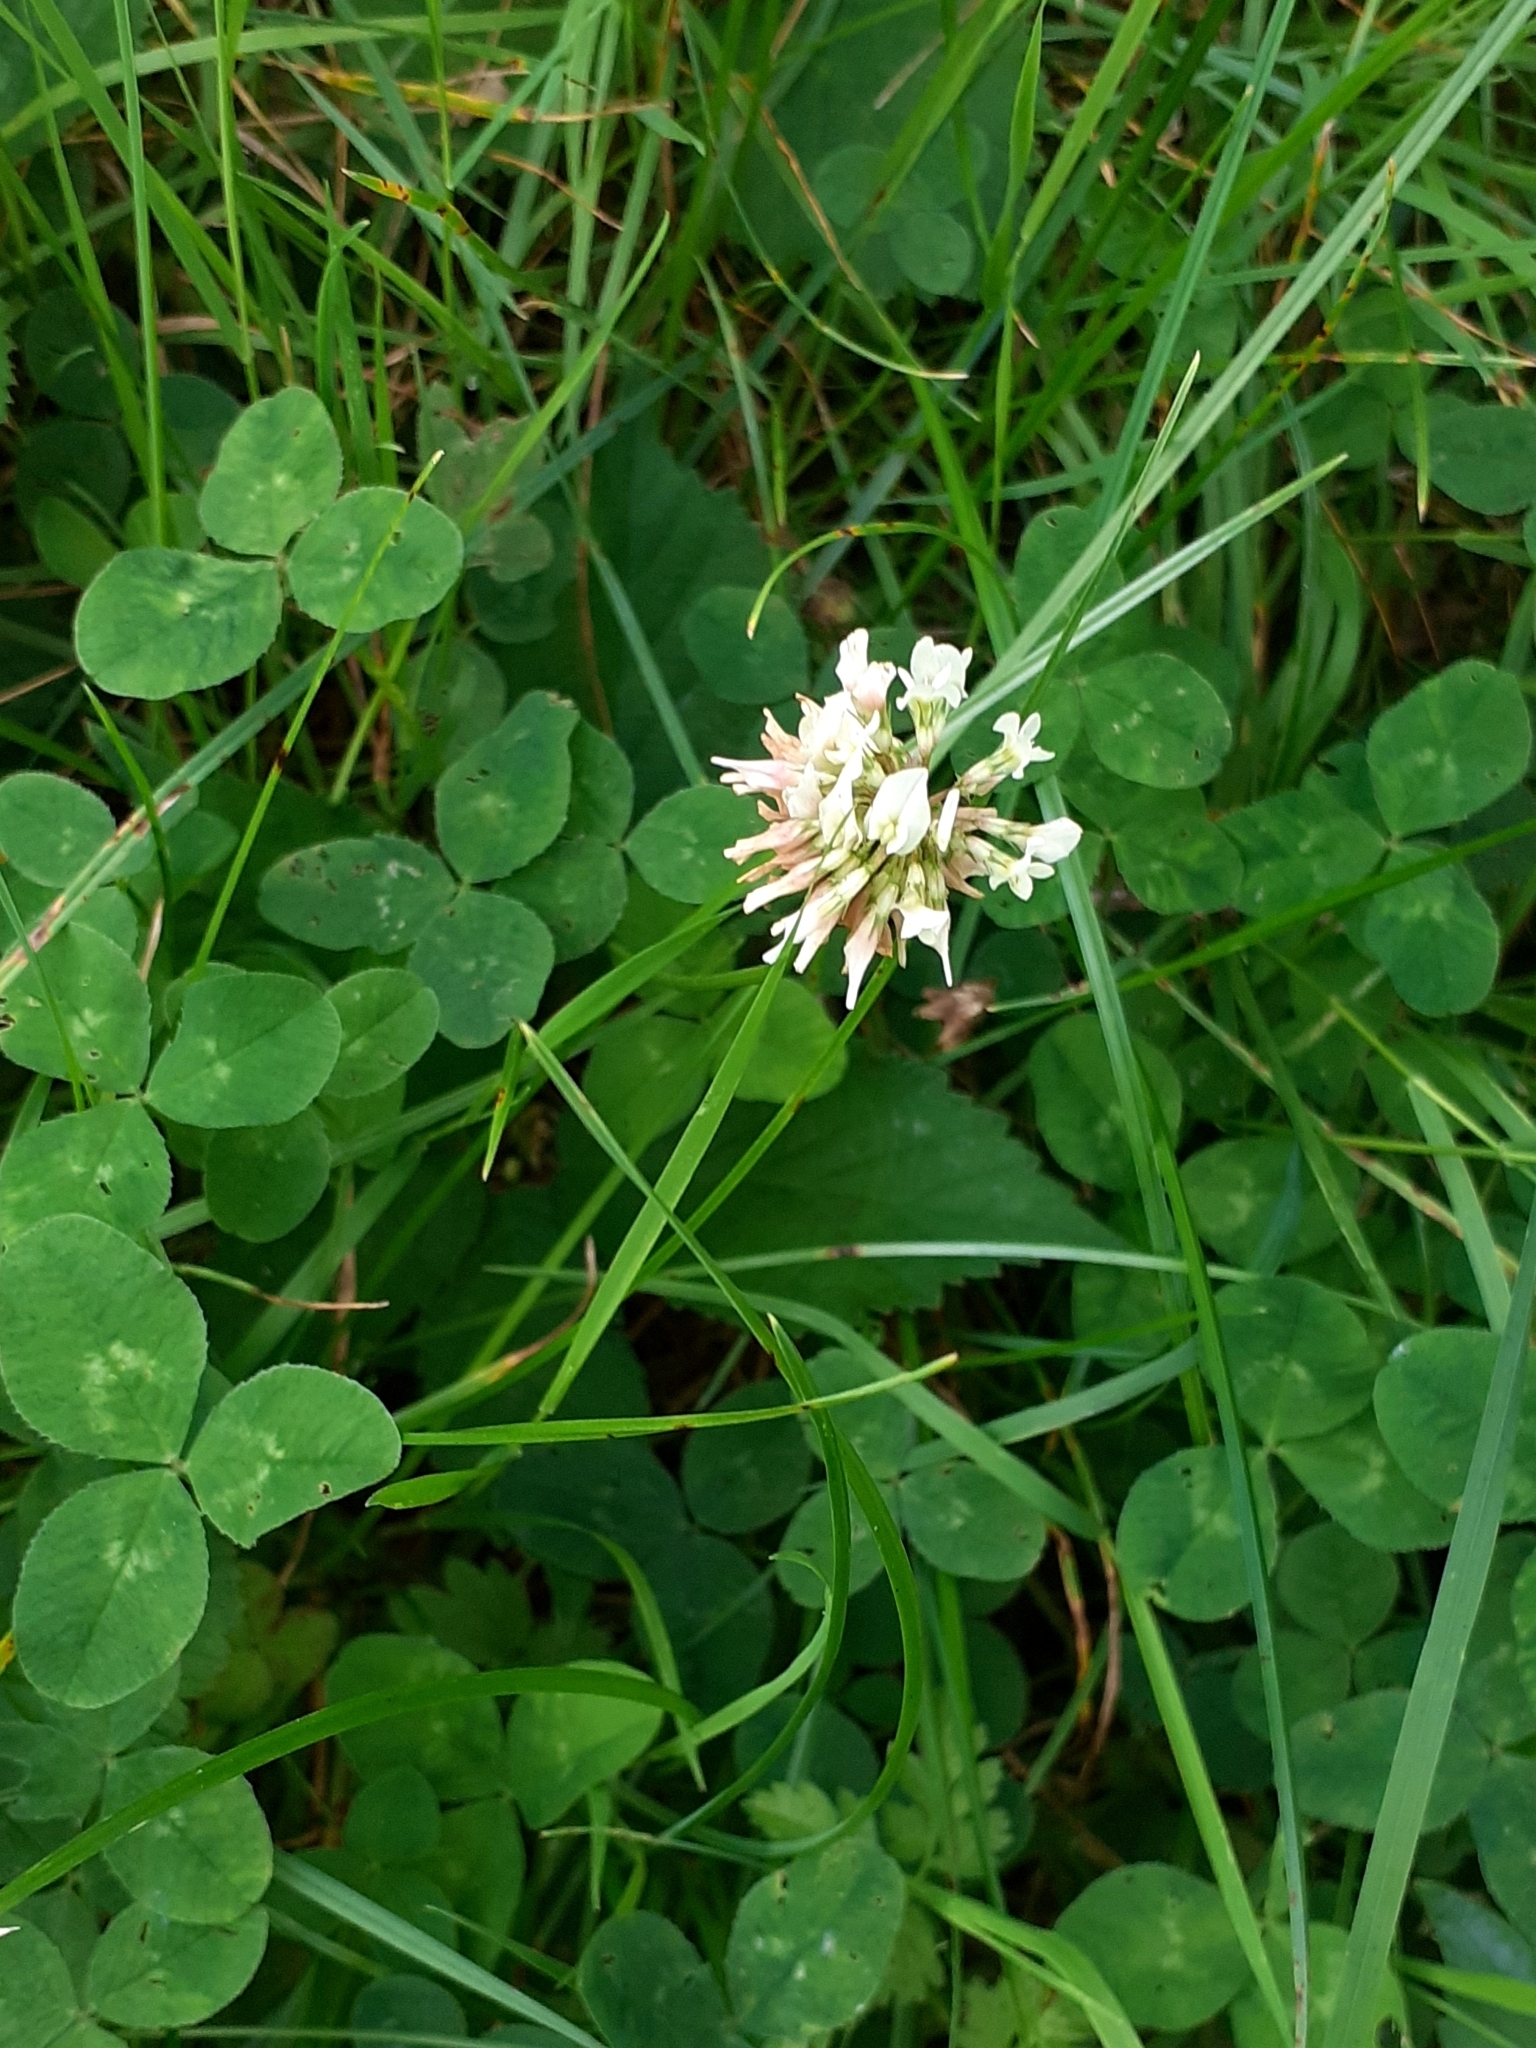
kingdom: Plantae
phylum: Tracheophyta
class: Magnoliopsida
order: Fabales
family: Fabaceae
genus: Trifolium
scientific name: Trifolium repens
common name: White clover
